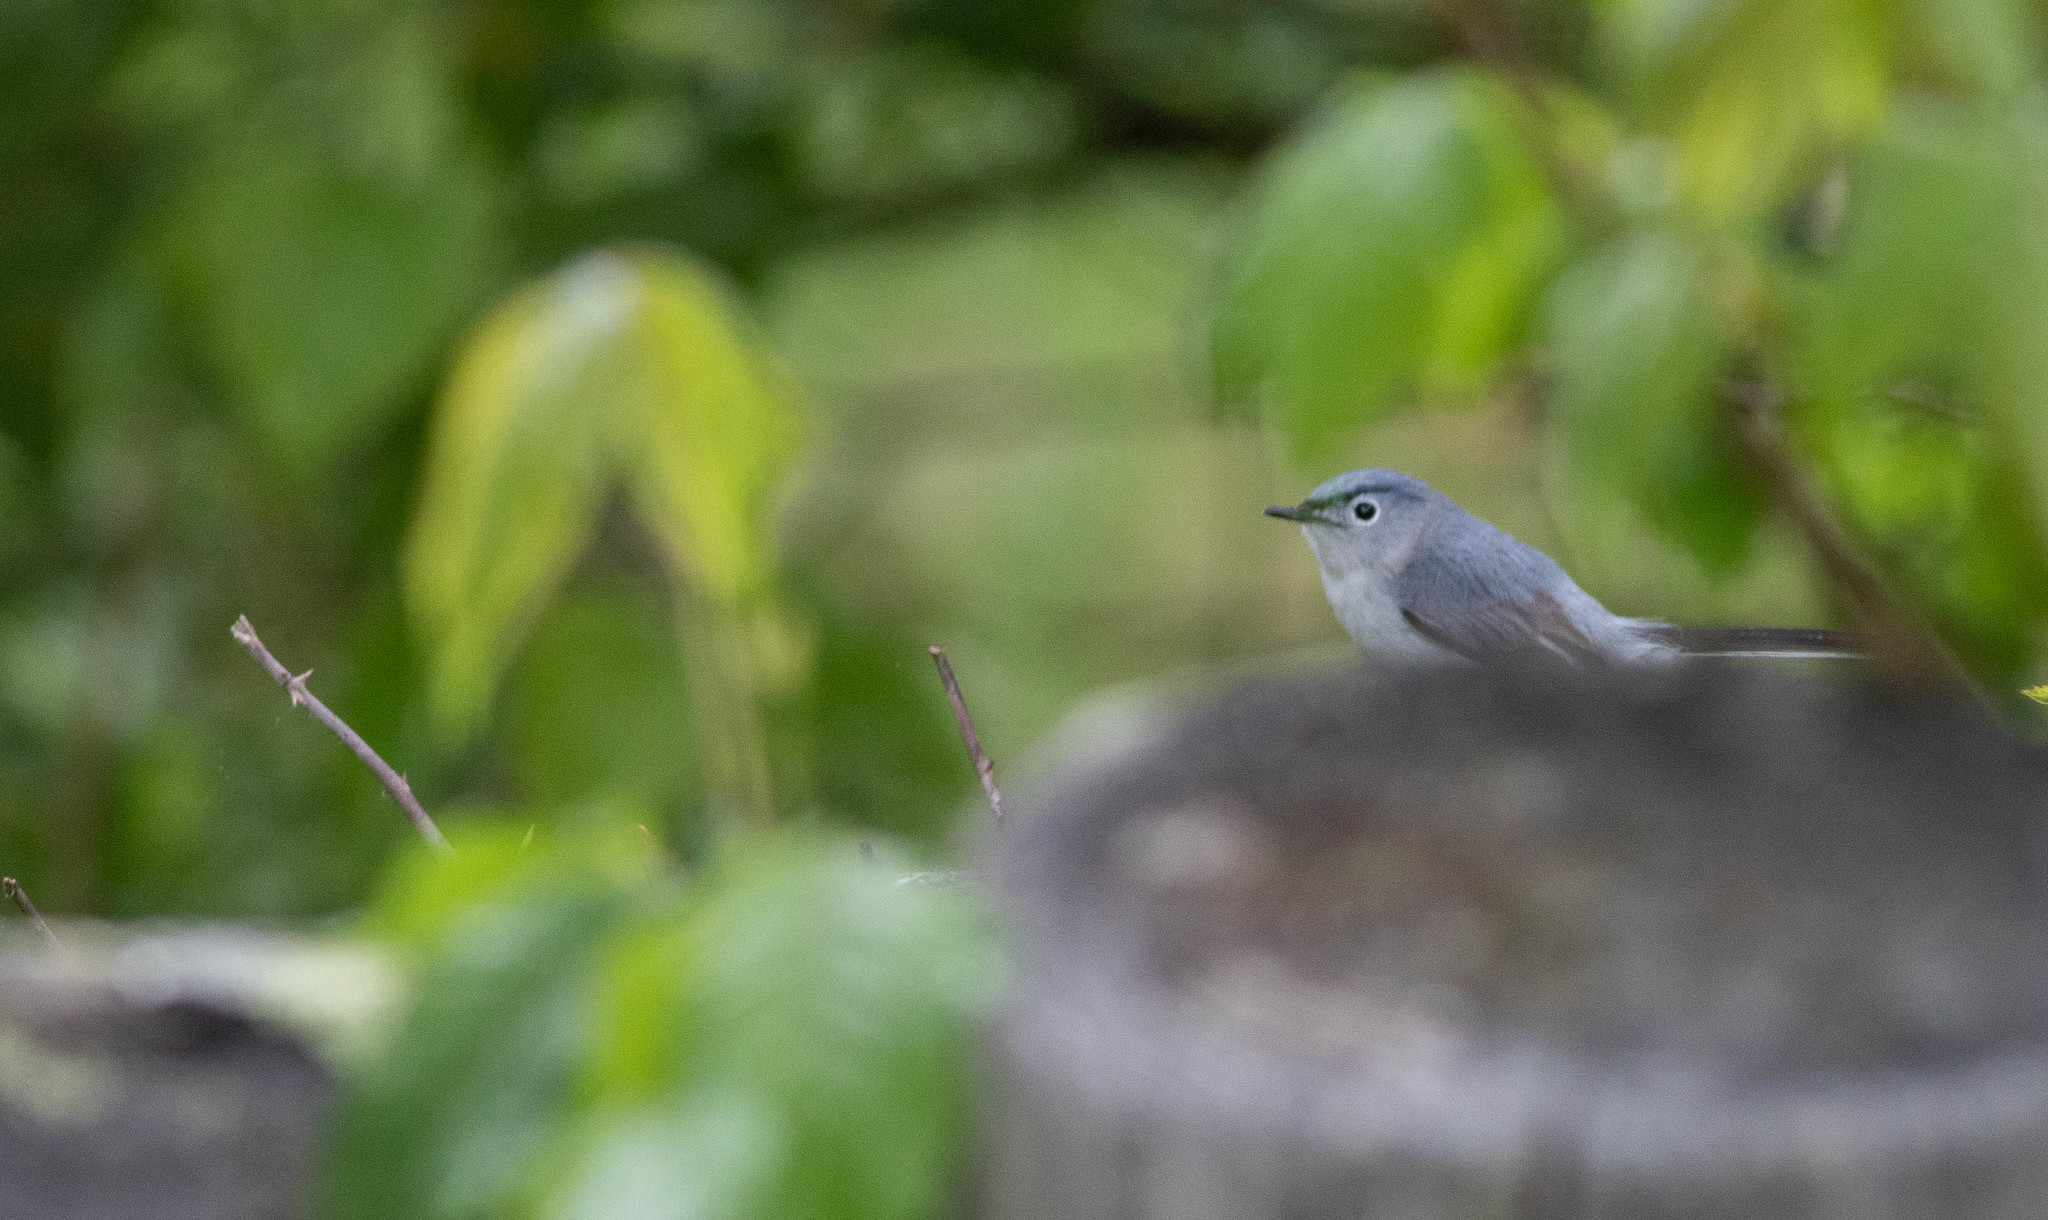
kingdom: Animalia
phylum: Chordata
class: Aves
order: Passeriformes
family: Polioptilidae
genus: Polioptila
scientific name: Polioptila caerulea
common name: Blue-gray gnatcatcher
